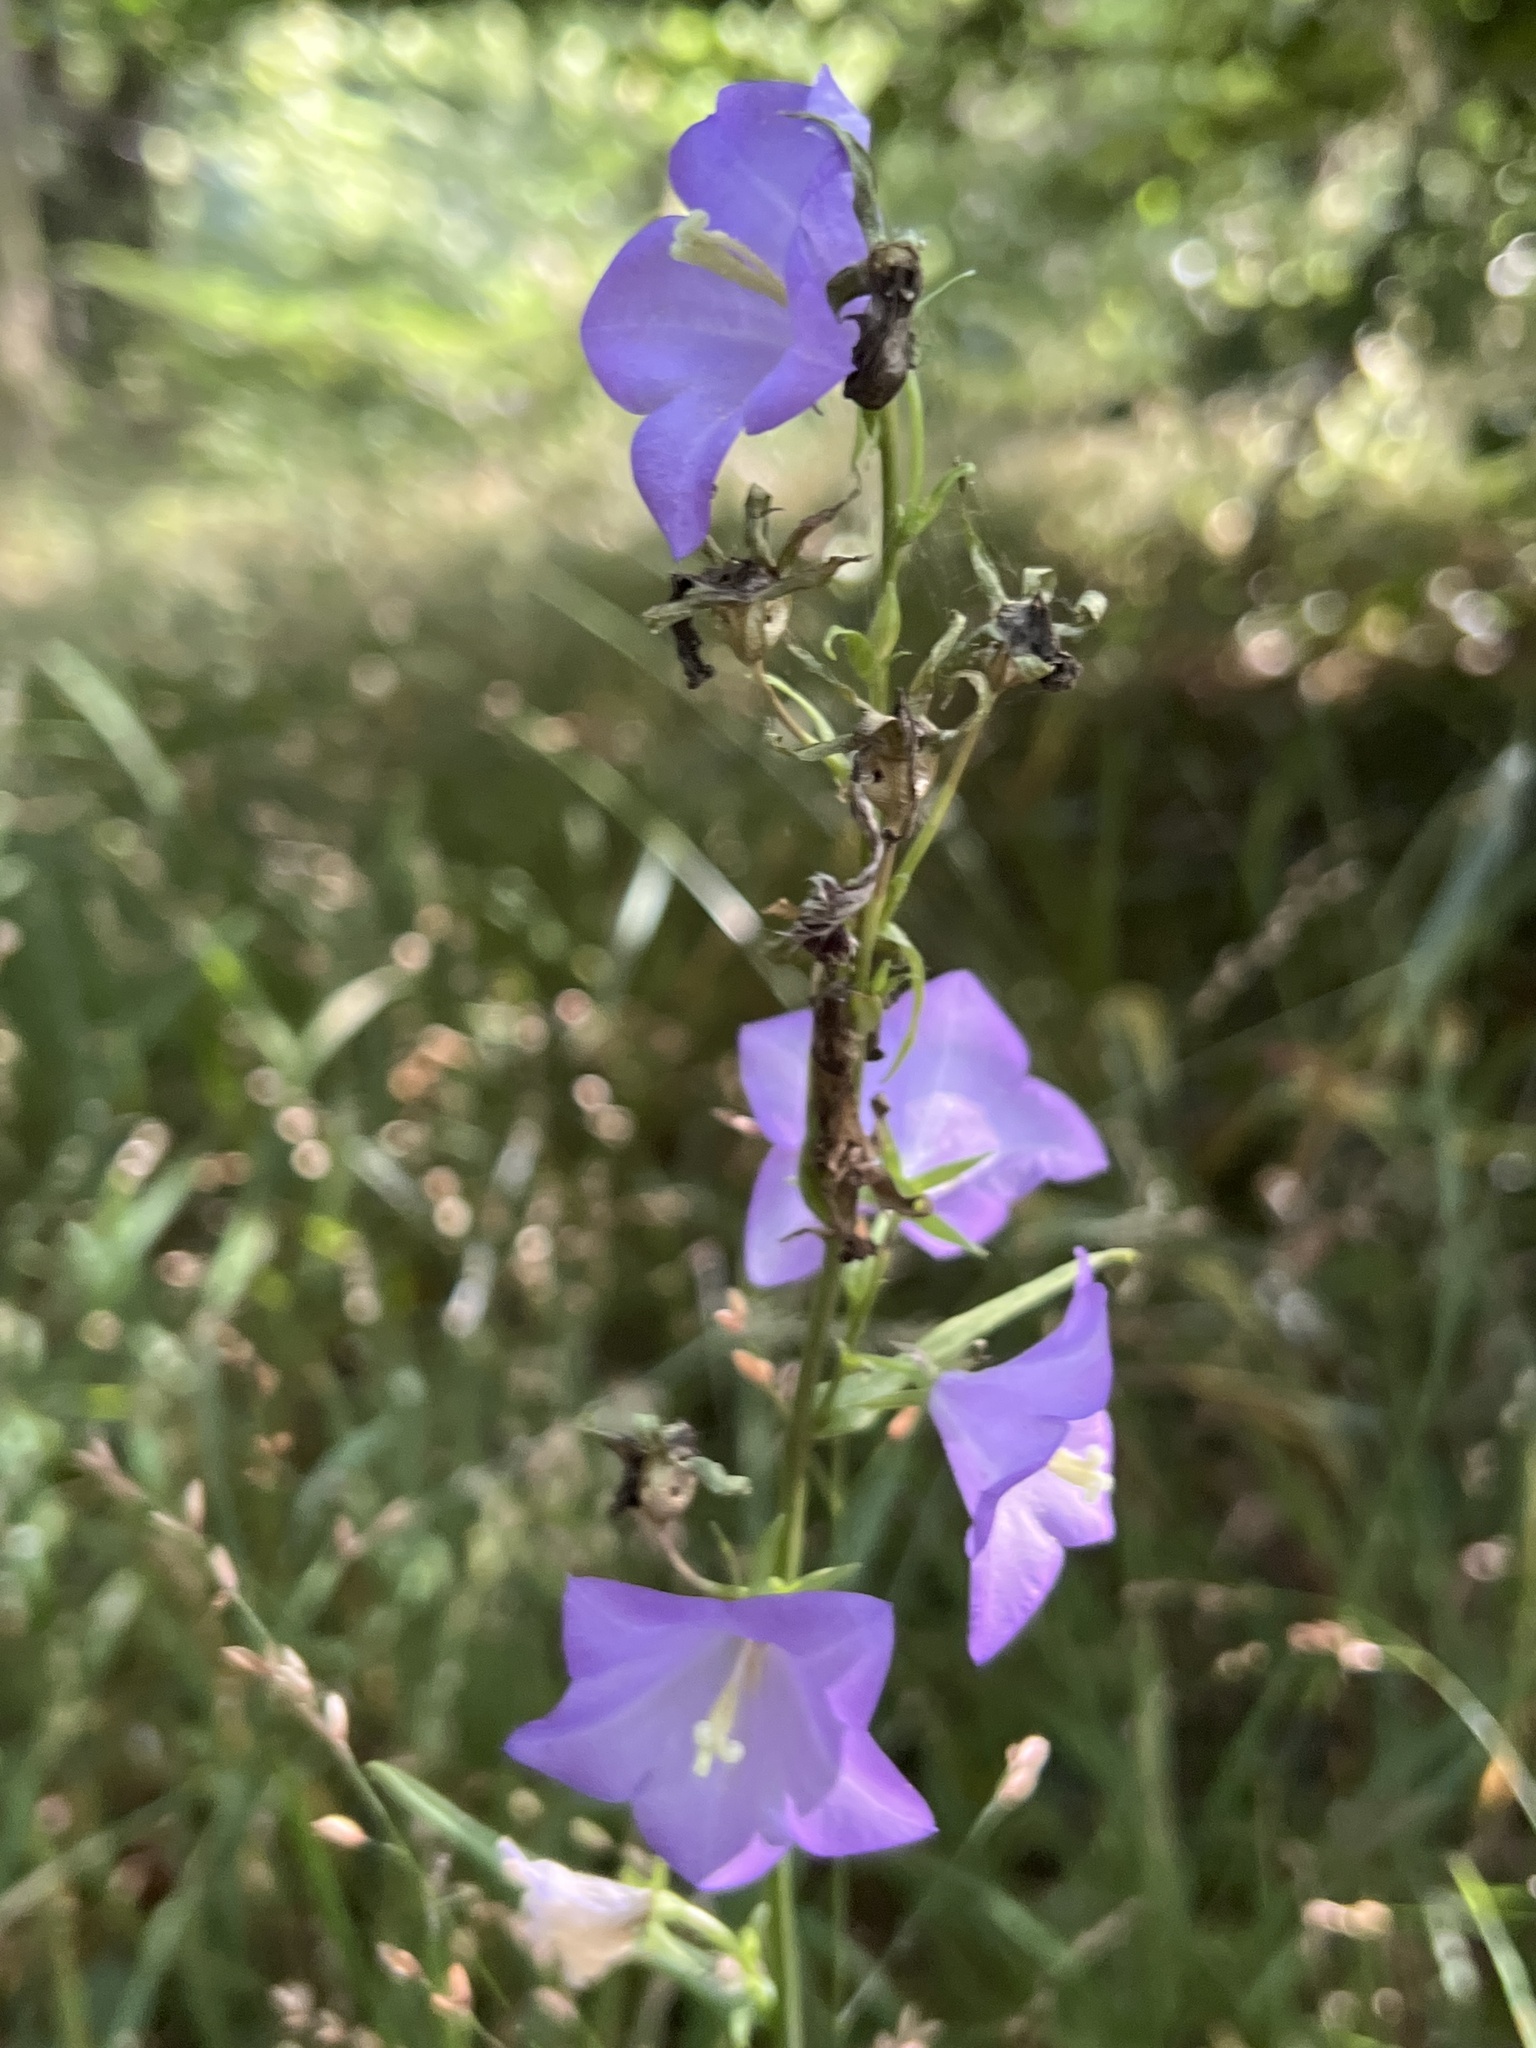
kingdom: Plantae
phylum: Tracheophyta
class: Magnoliopsida
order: Asterales
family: Campanulaceae
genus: Campanula
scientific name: Campanula persicifolia
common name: Peach-leaved bellflower
